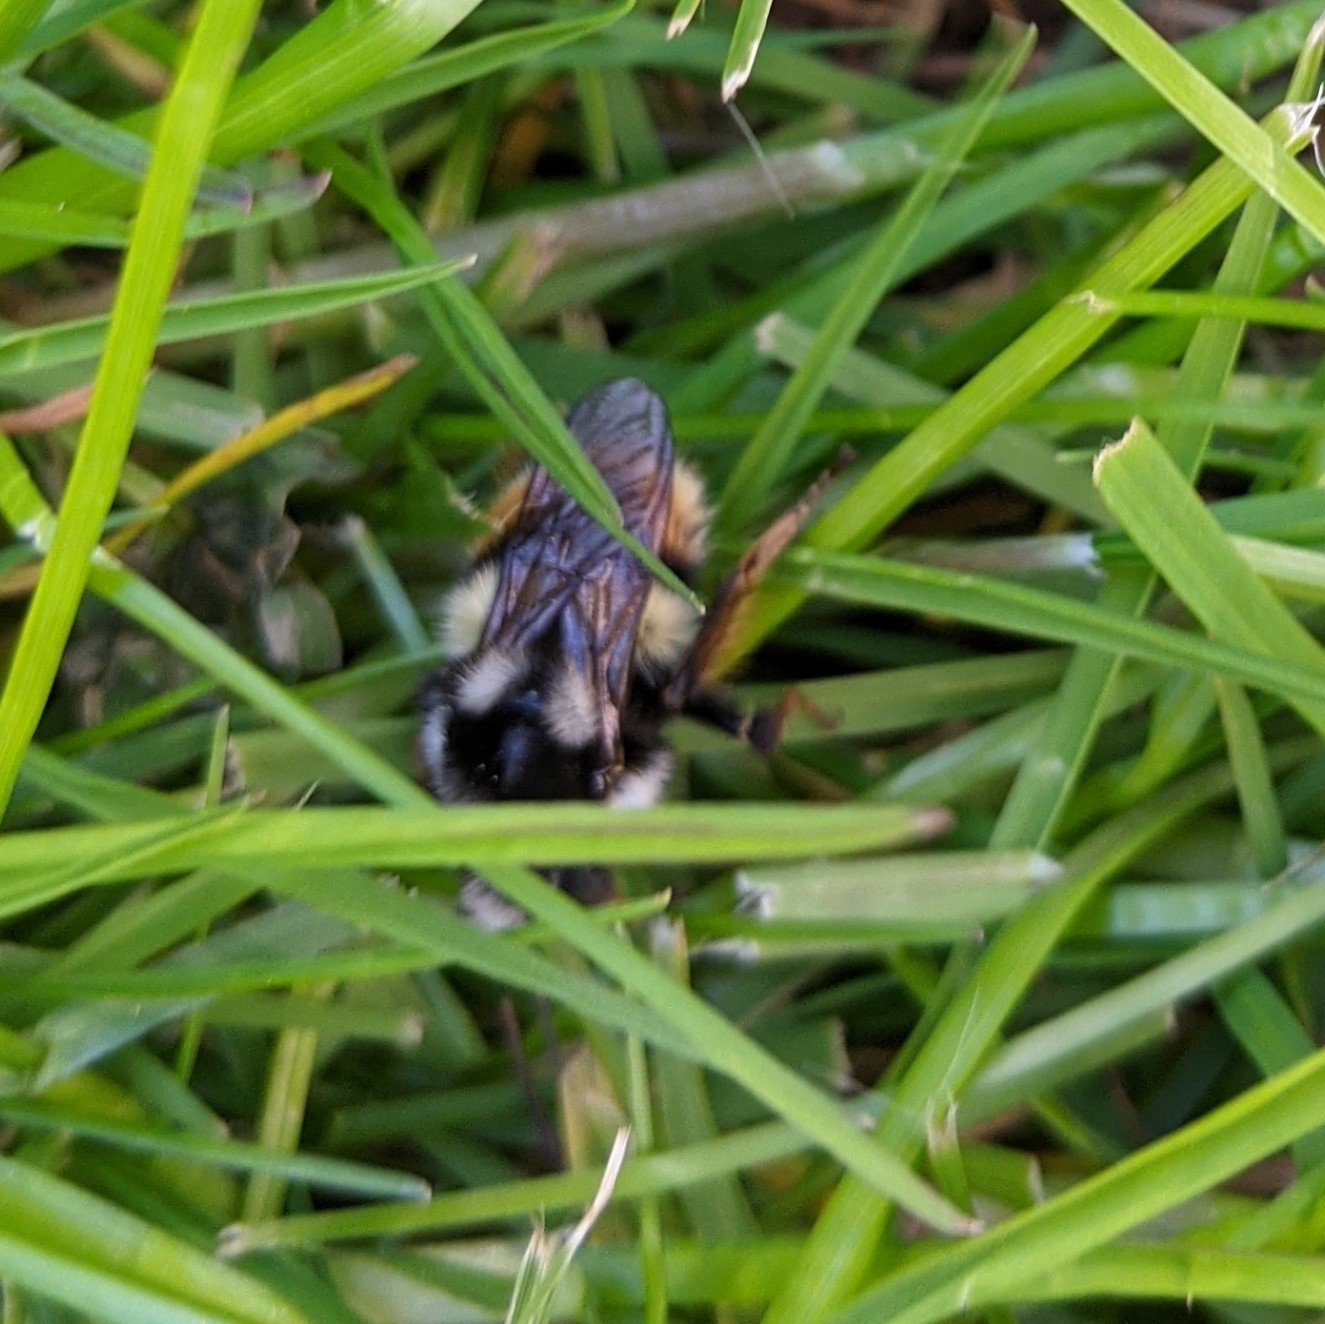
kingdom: Animalia
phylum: Arthropoda
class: Insecta
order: Hymenoptera
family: Apidae
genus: Bombus
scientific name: Bombus vancouverensis
